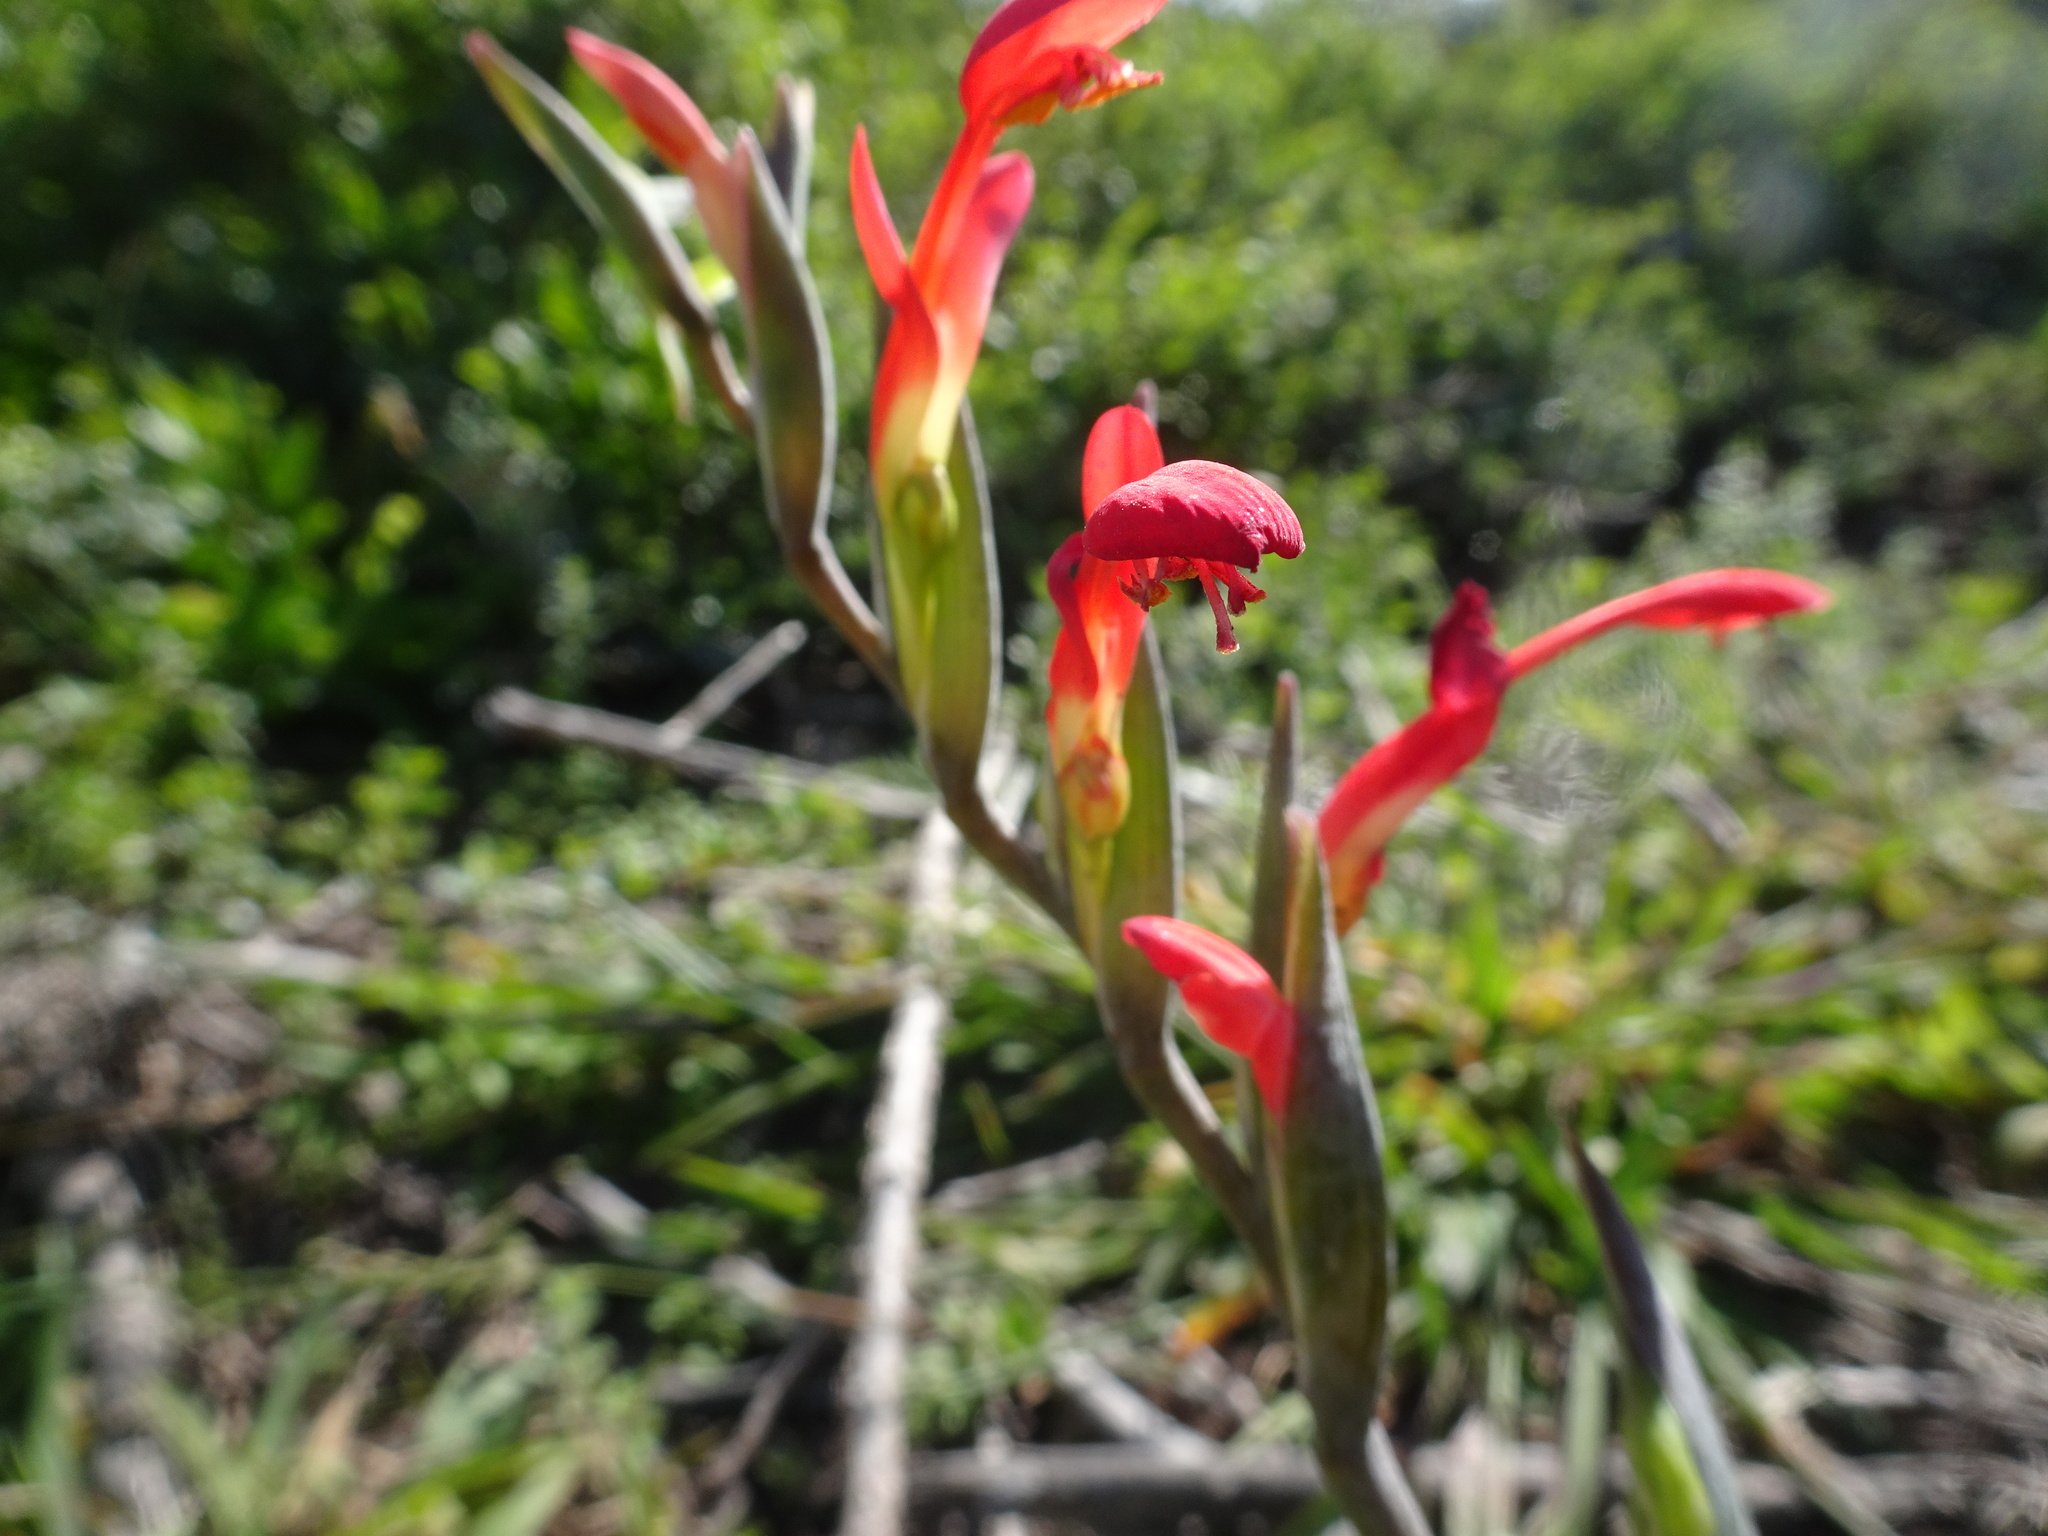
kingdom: Plantae
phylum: Tracheophyta
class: Liliopsida
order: Asparagales
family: Iridaceae
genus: Gladiolus
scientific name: Gladiolus cunonius
